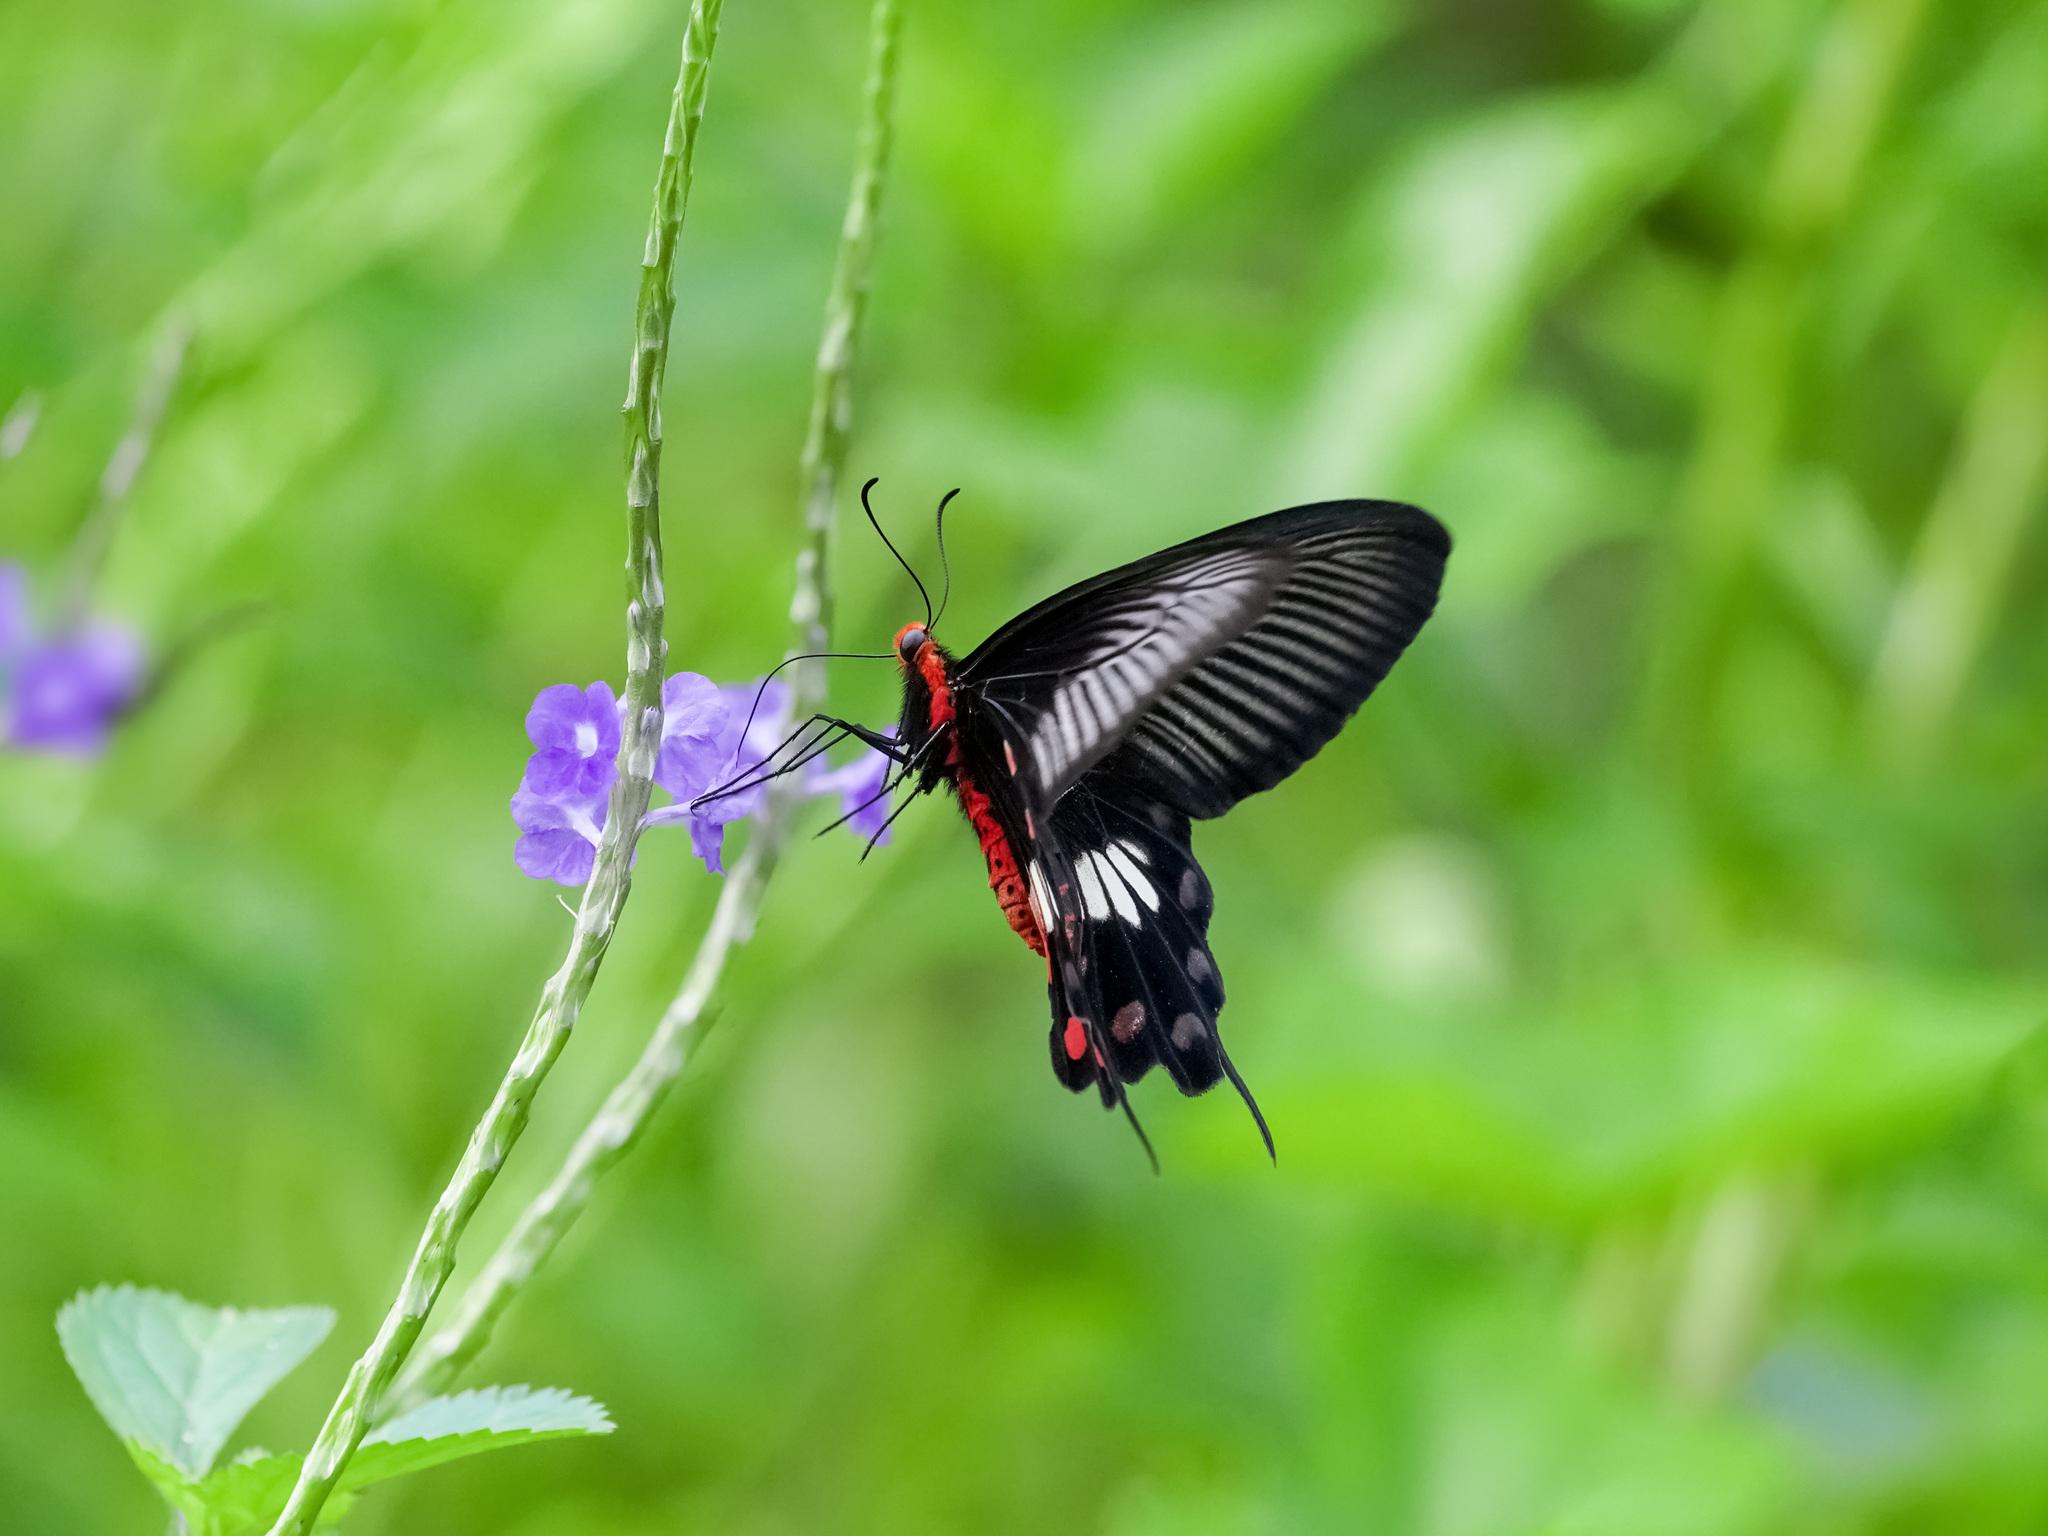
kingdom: Animalia
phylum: Arthropoda
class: Insecta
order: Lepidoptera
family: Papilionidae
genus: Pachliopta
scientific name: Pachliopta aristolochiae
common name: Common rose
